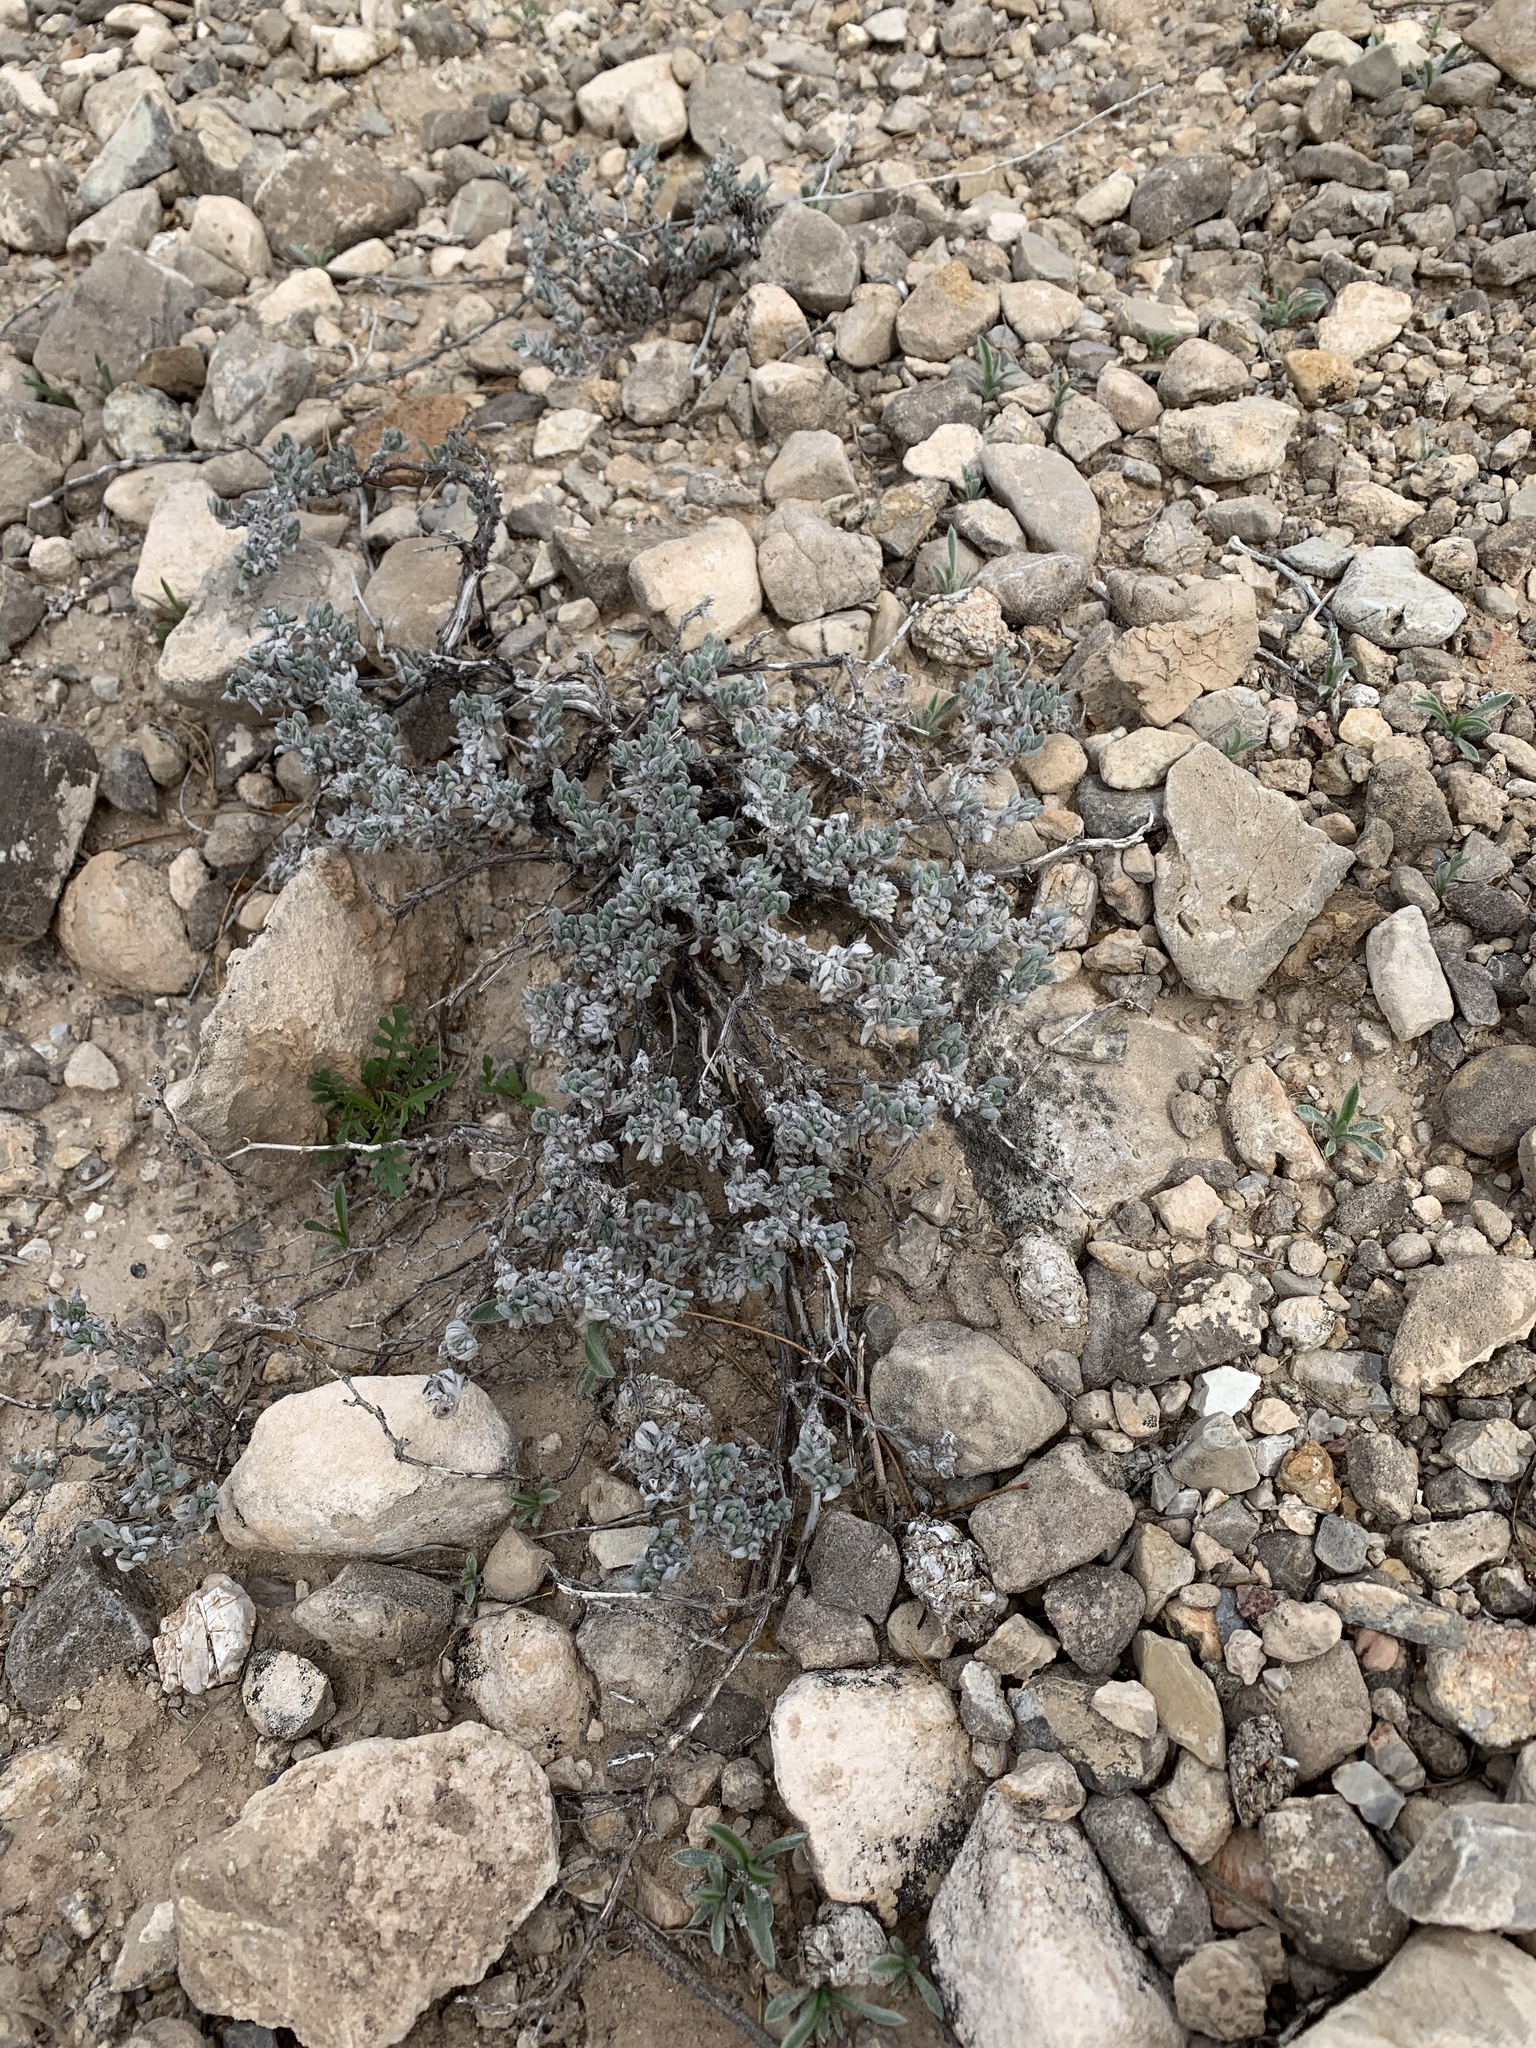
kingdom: Plantae
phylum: Tracheophyta
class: Magnoliopsida
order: Boraginales
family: Ehretiaceae
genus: Tiquilia
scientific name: Tiquilia canescens
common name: Hairy tiquilia
